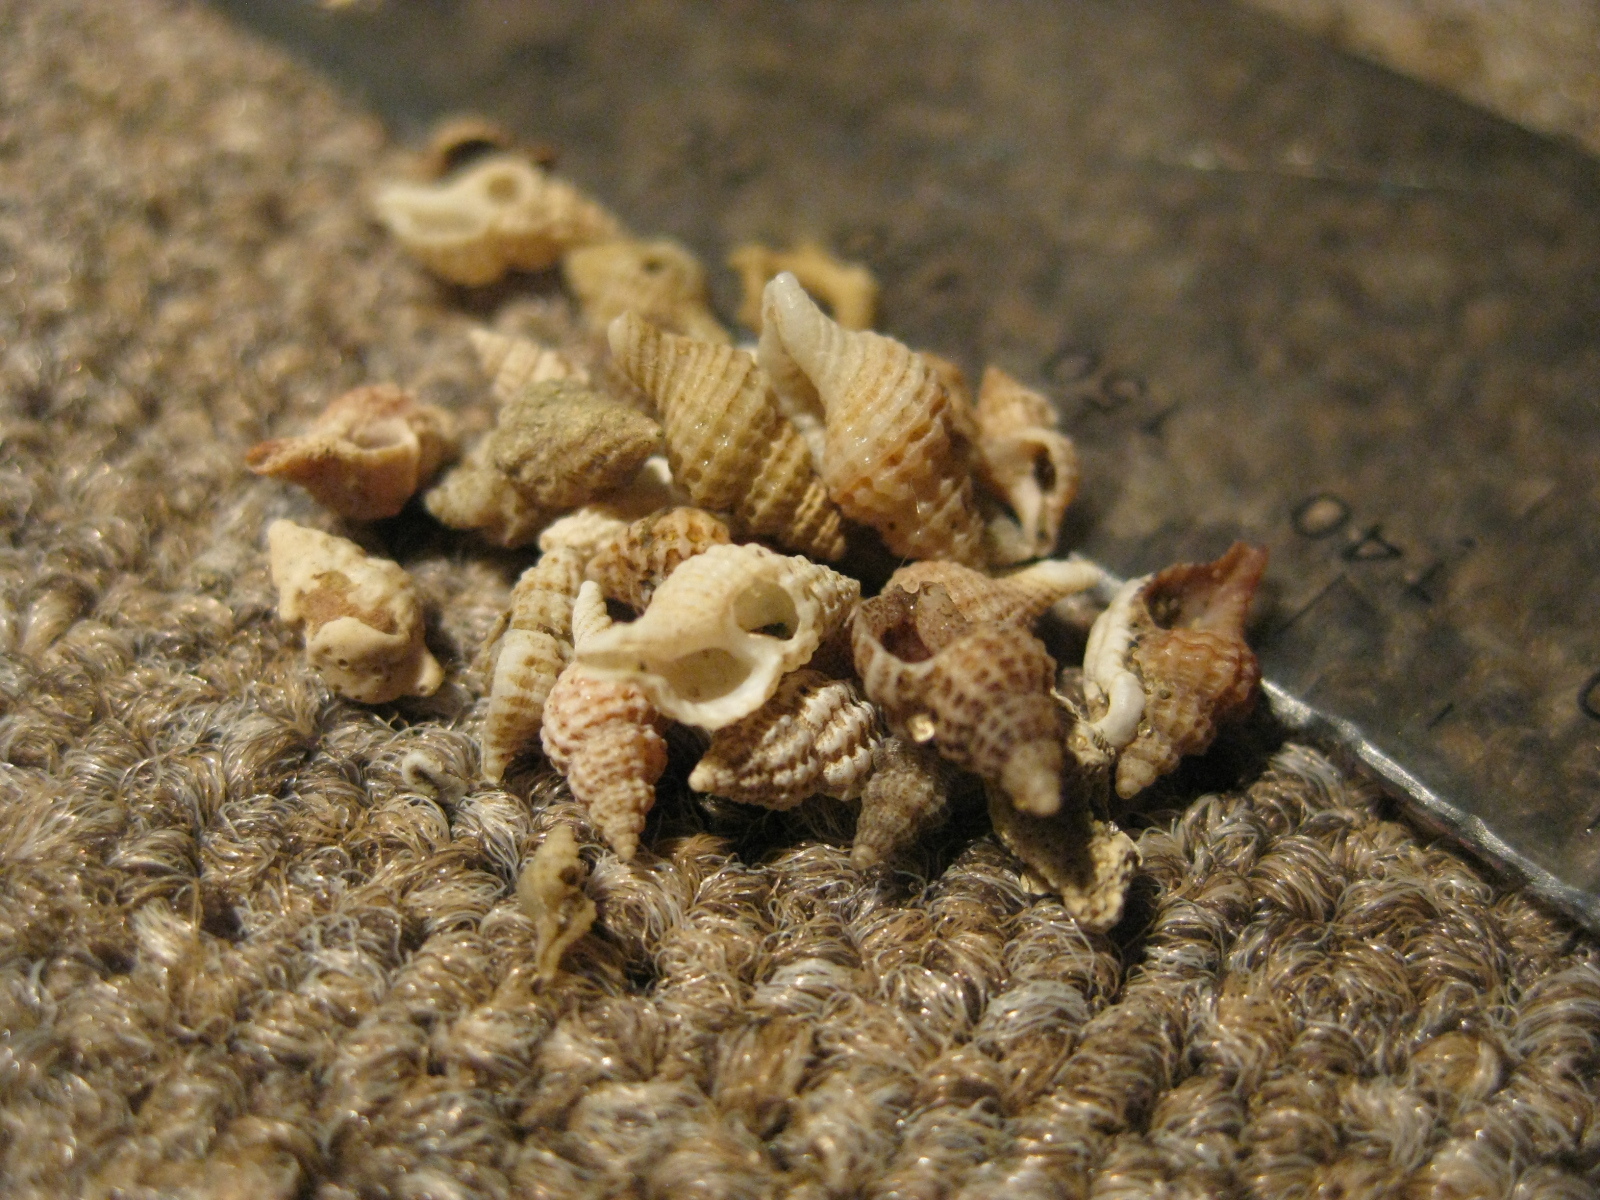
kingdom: Animalia
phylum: Mollusca
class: Gastropoda
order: Neogastropoda
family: Muricidae
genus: Xymenella
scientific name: Xymenella pusilla
